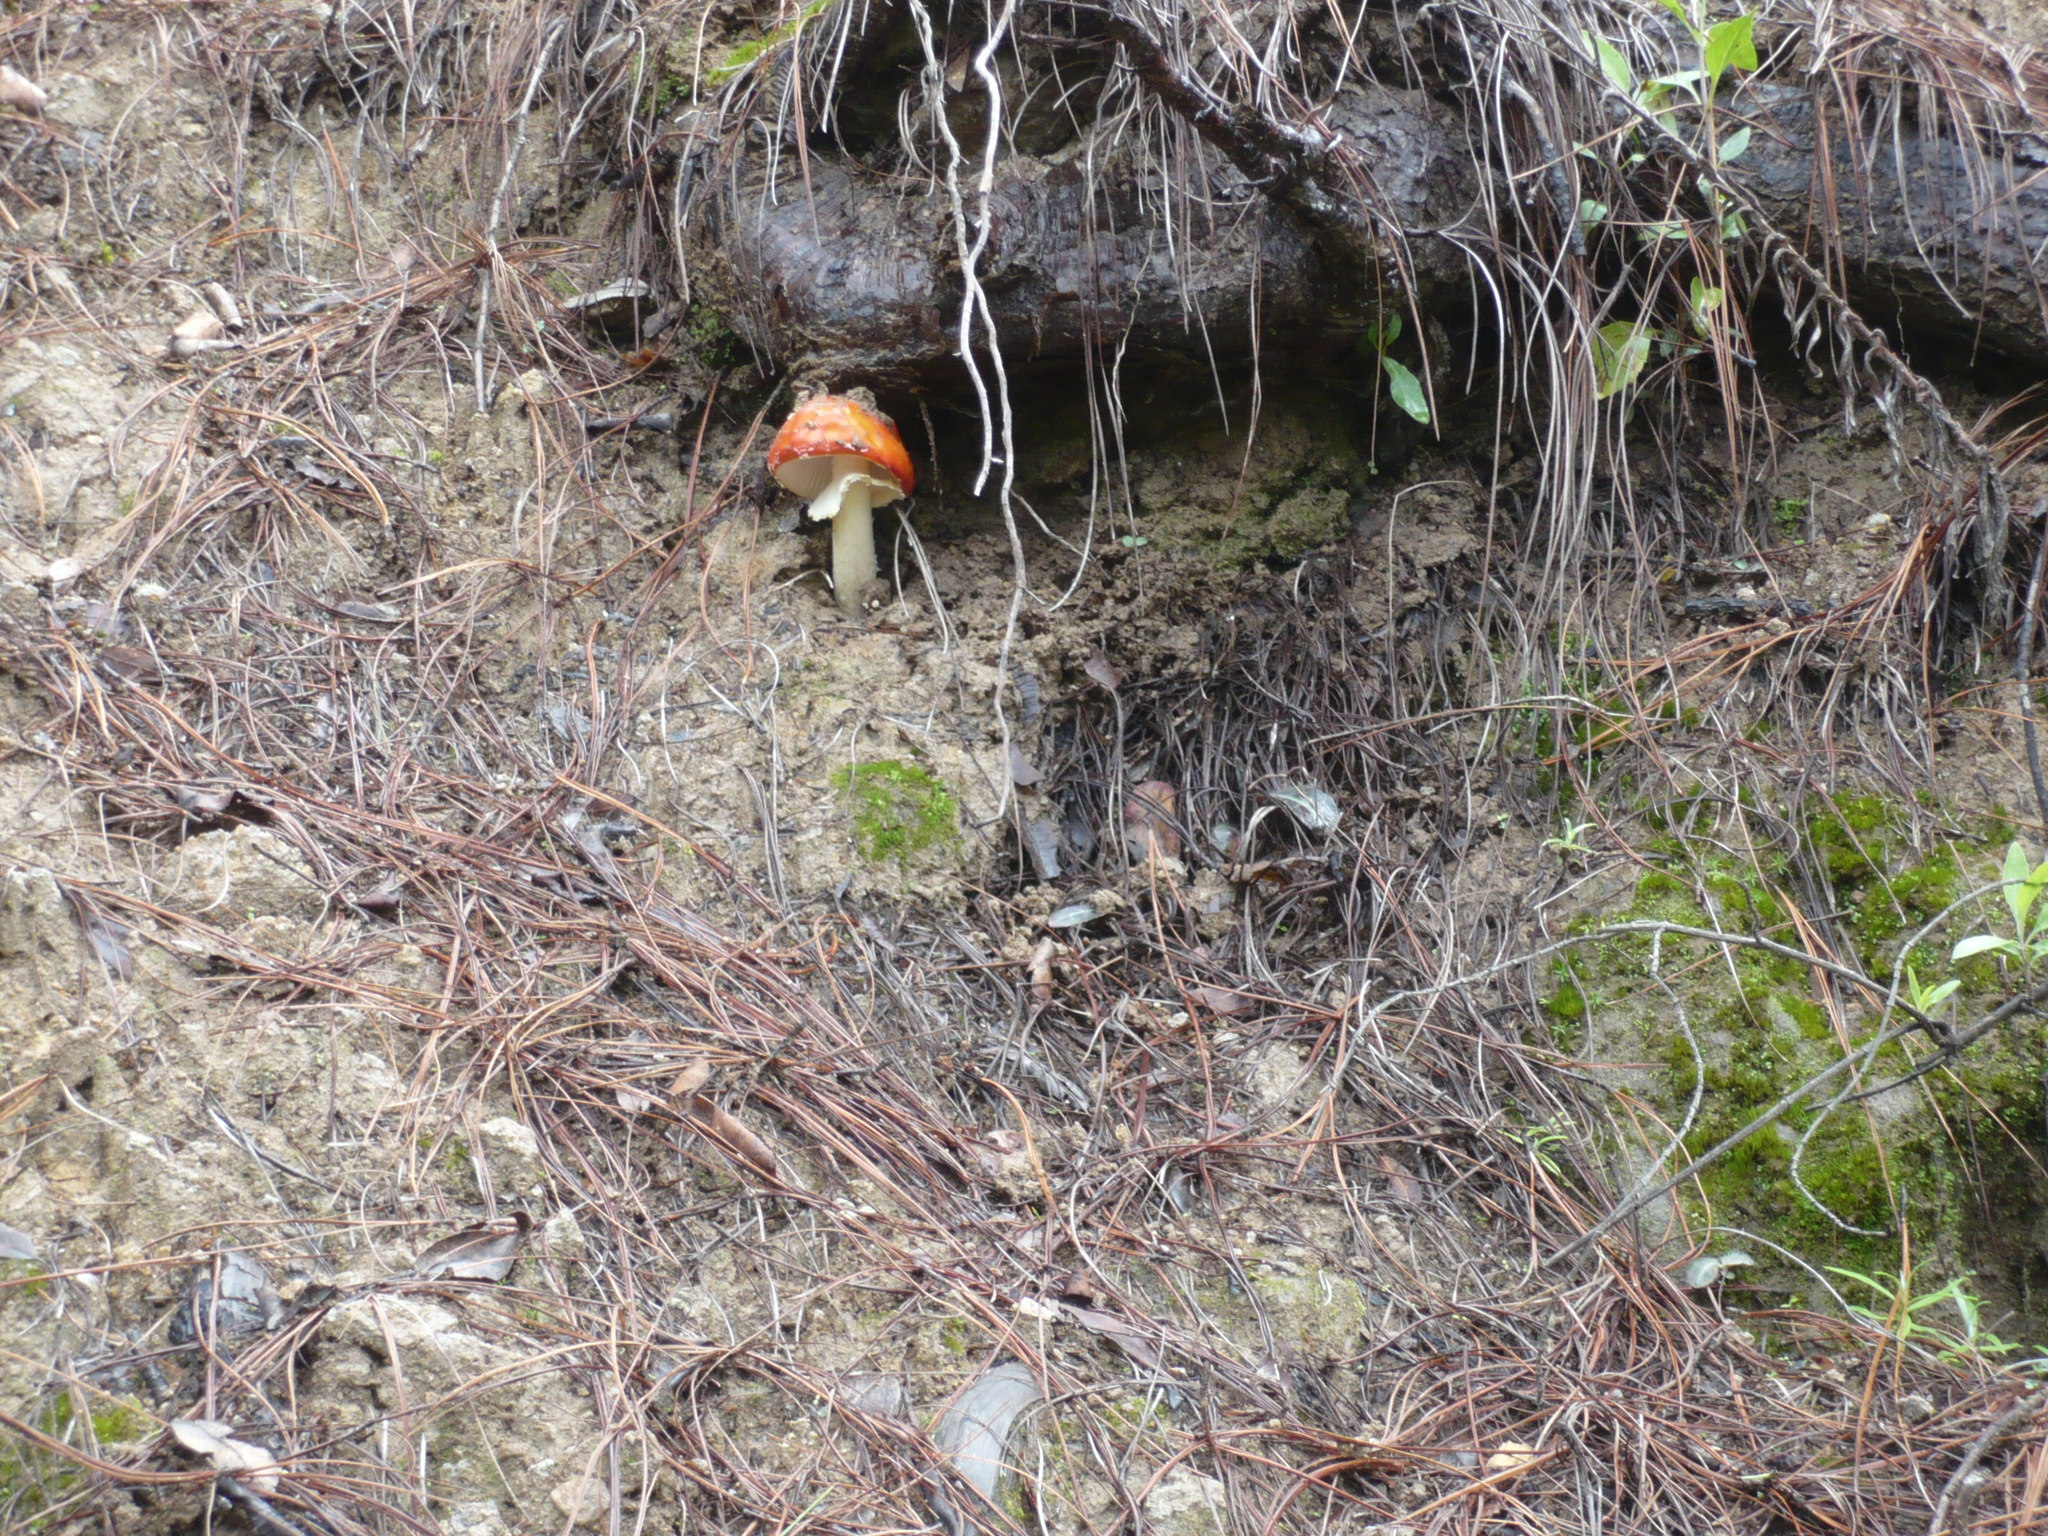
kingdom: Fungi
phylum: Basidiomycota
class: Agaricomycetes
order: Agaricales
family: Amanitaceae
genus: Amanita
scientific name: Amanita muscaria
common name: Fly agaric
